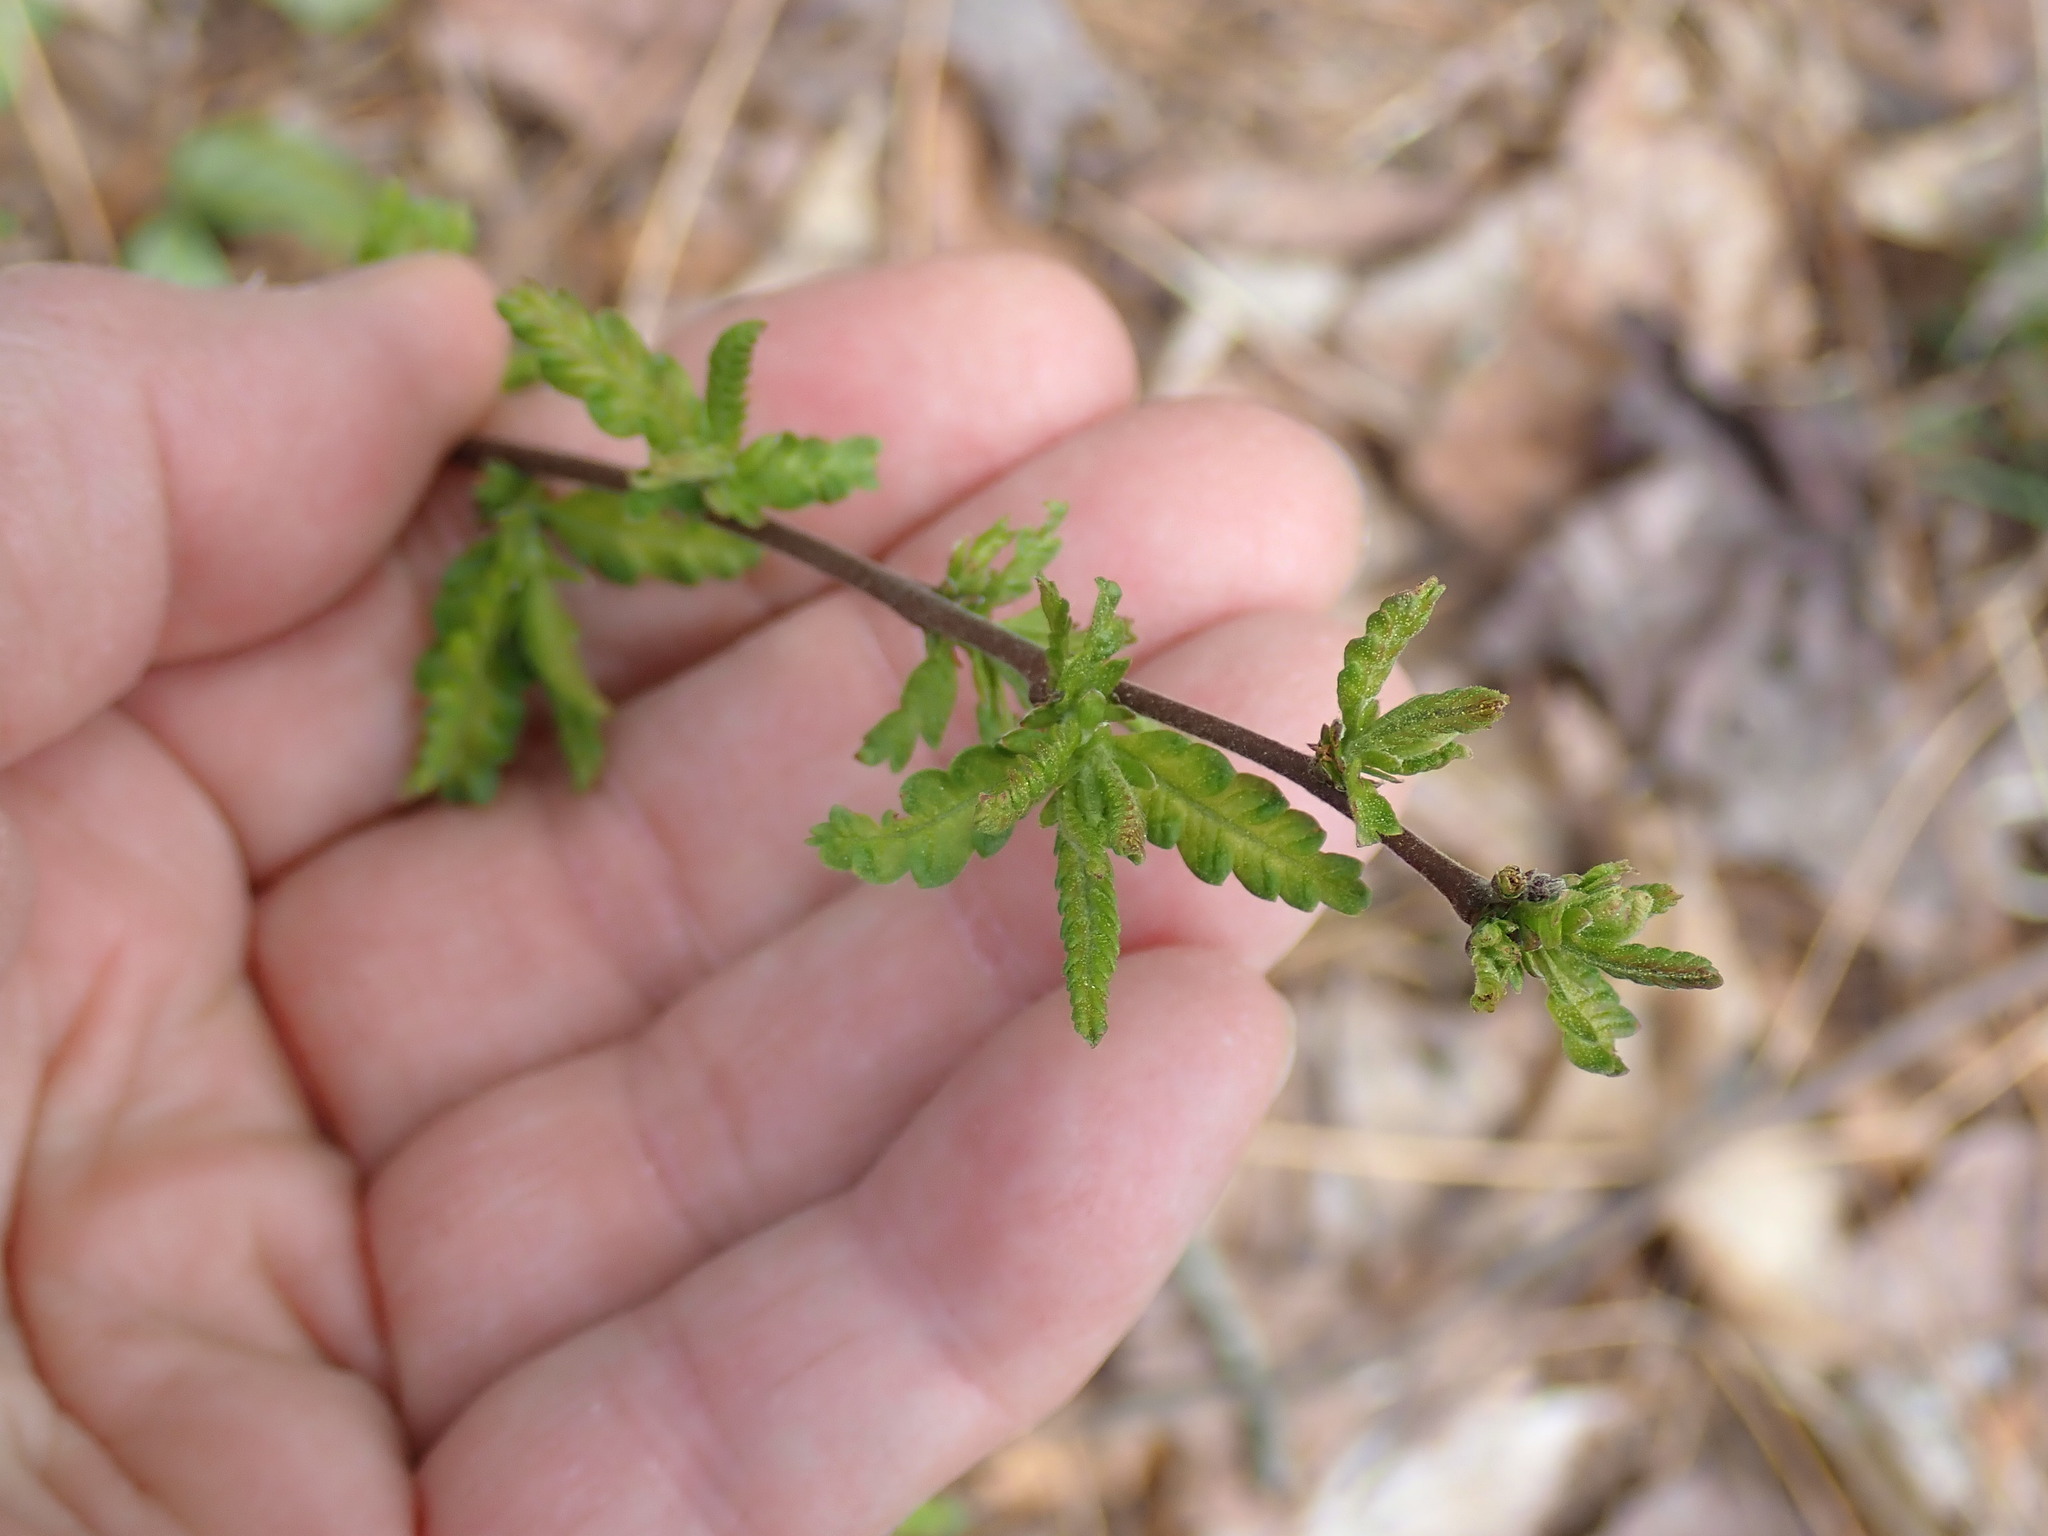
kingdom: Plantae
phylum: Tracheophyta
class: Magnoliopsida
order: Fagales
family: Myricaceae
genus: Comptonia
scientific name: Comptonia peregrina
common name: Sweet-fern
